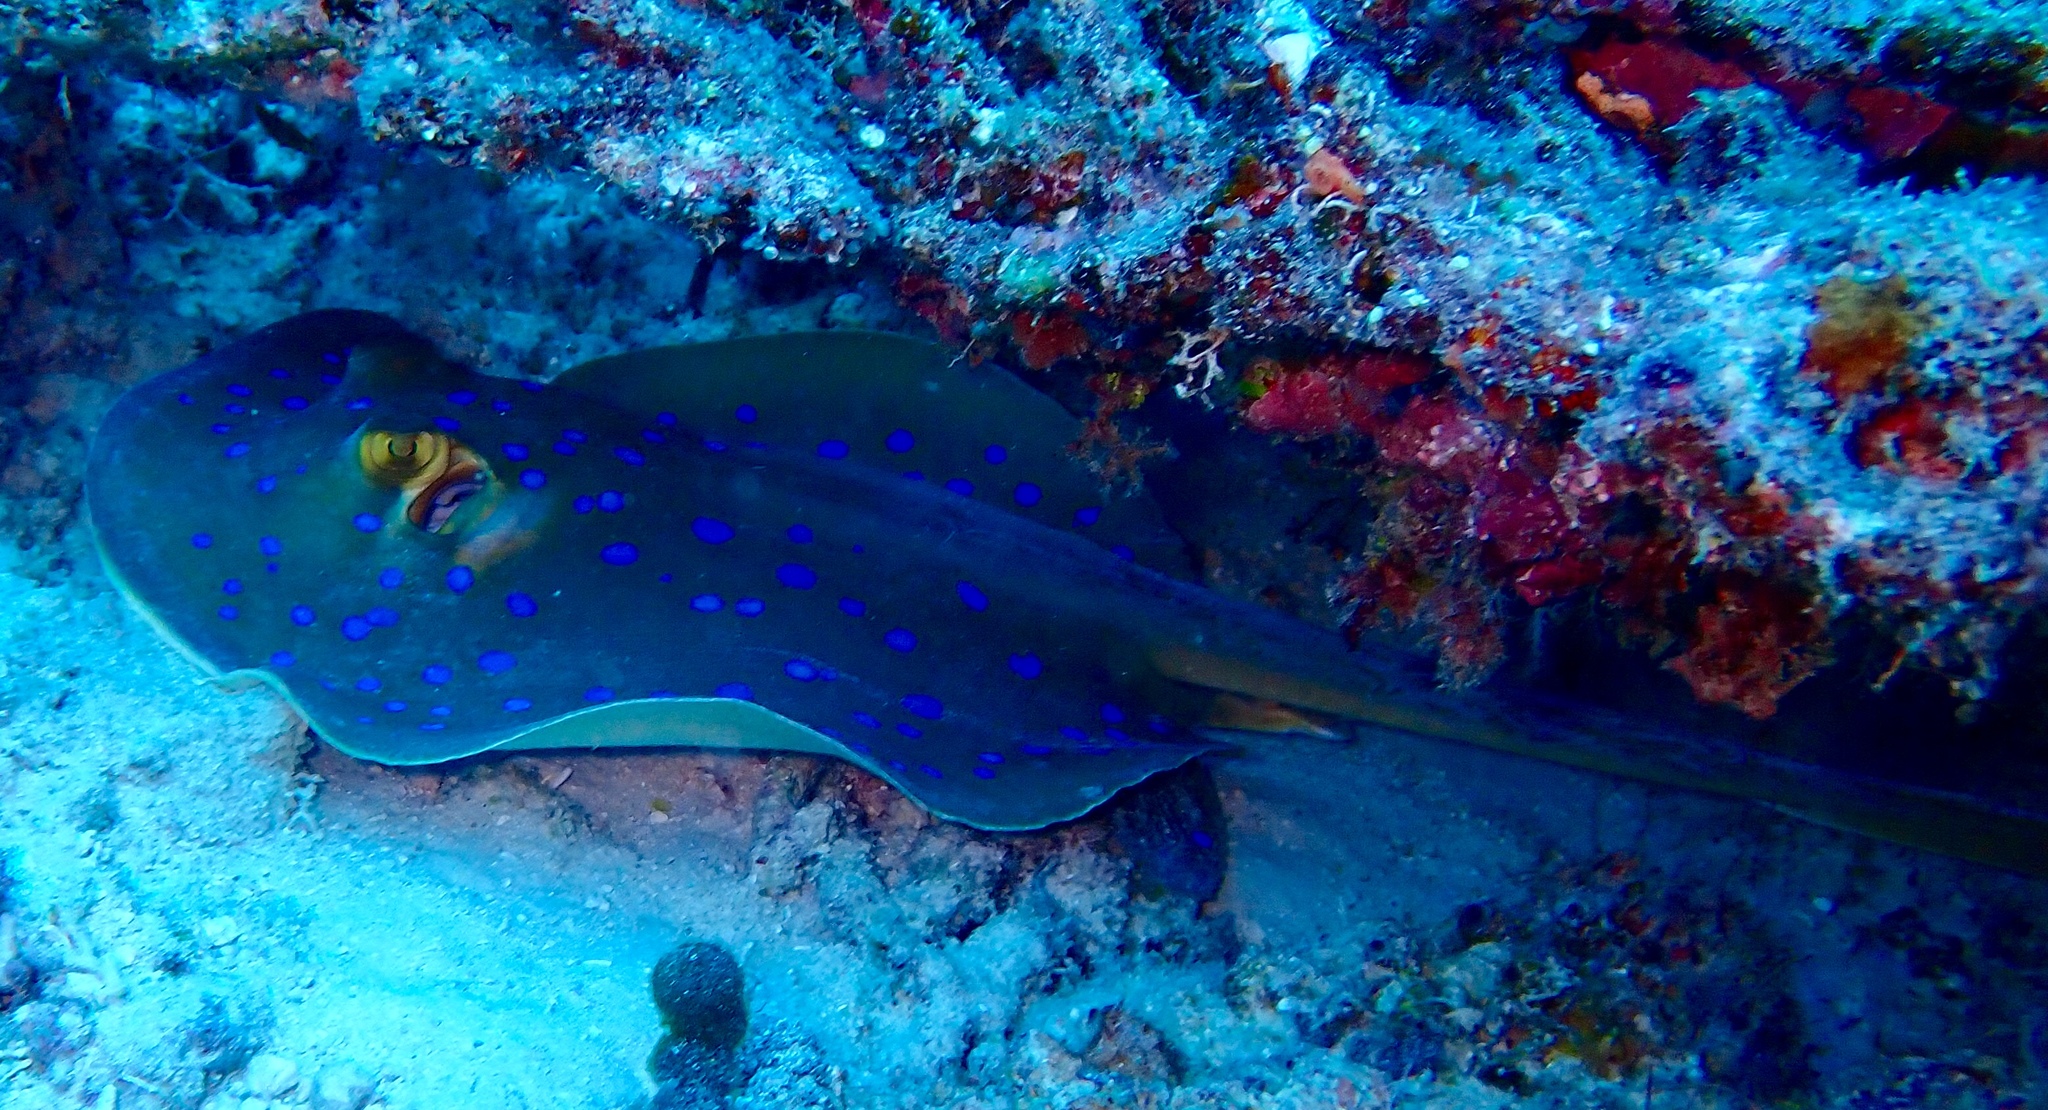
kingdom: Animalia
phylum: Chordata
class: Elasmobranchii
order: Myliobatiformes
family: Dasyatidae
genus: Taeniura
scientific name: Taeniura lessoni
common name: Oceania fantail ray
